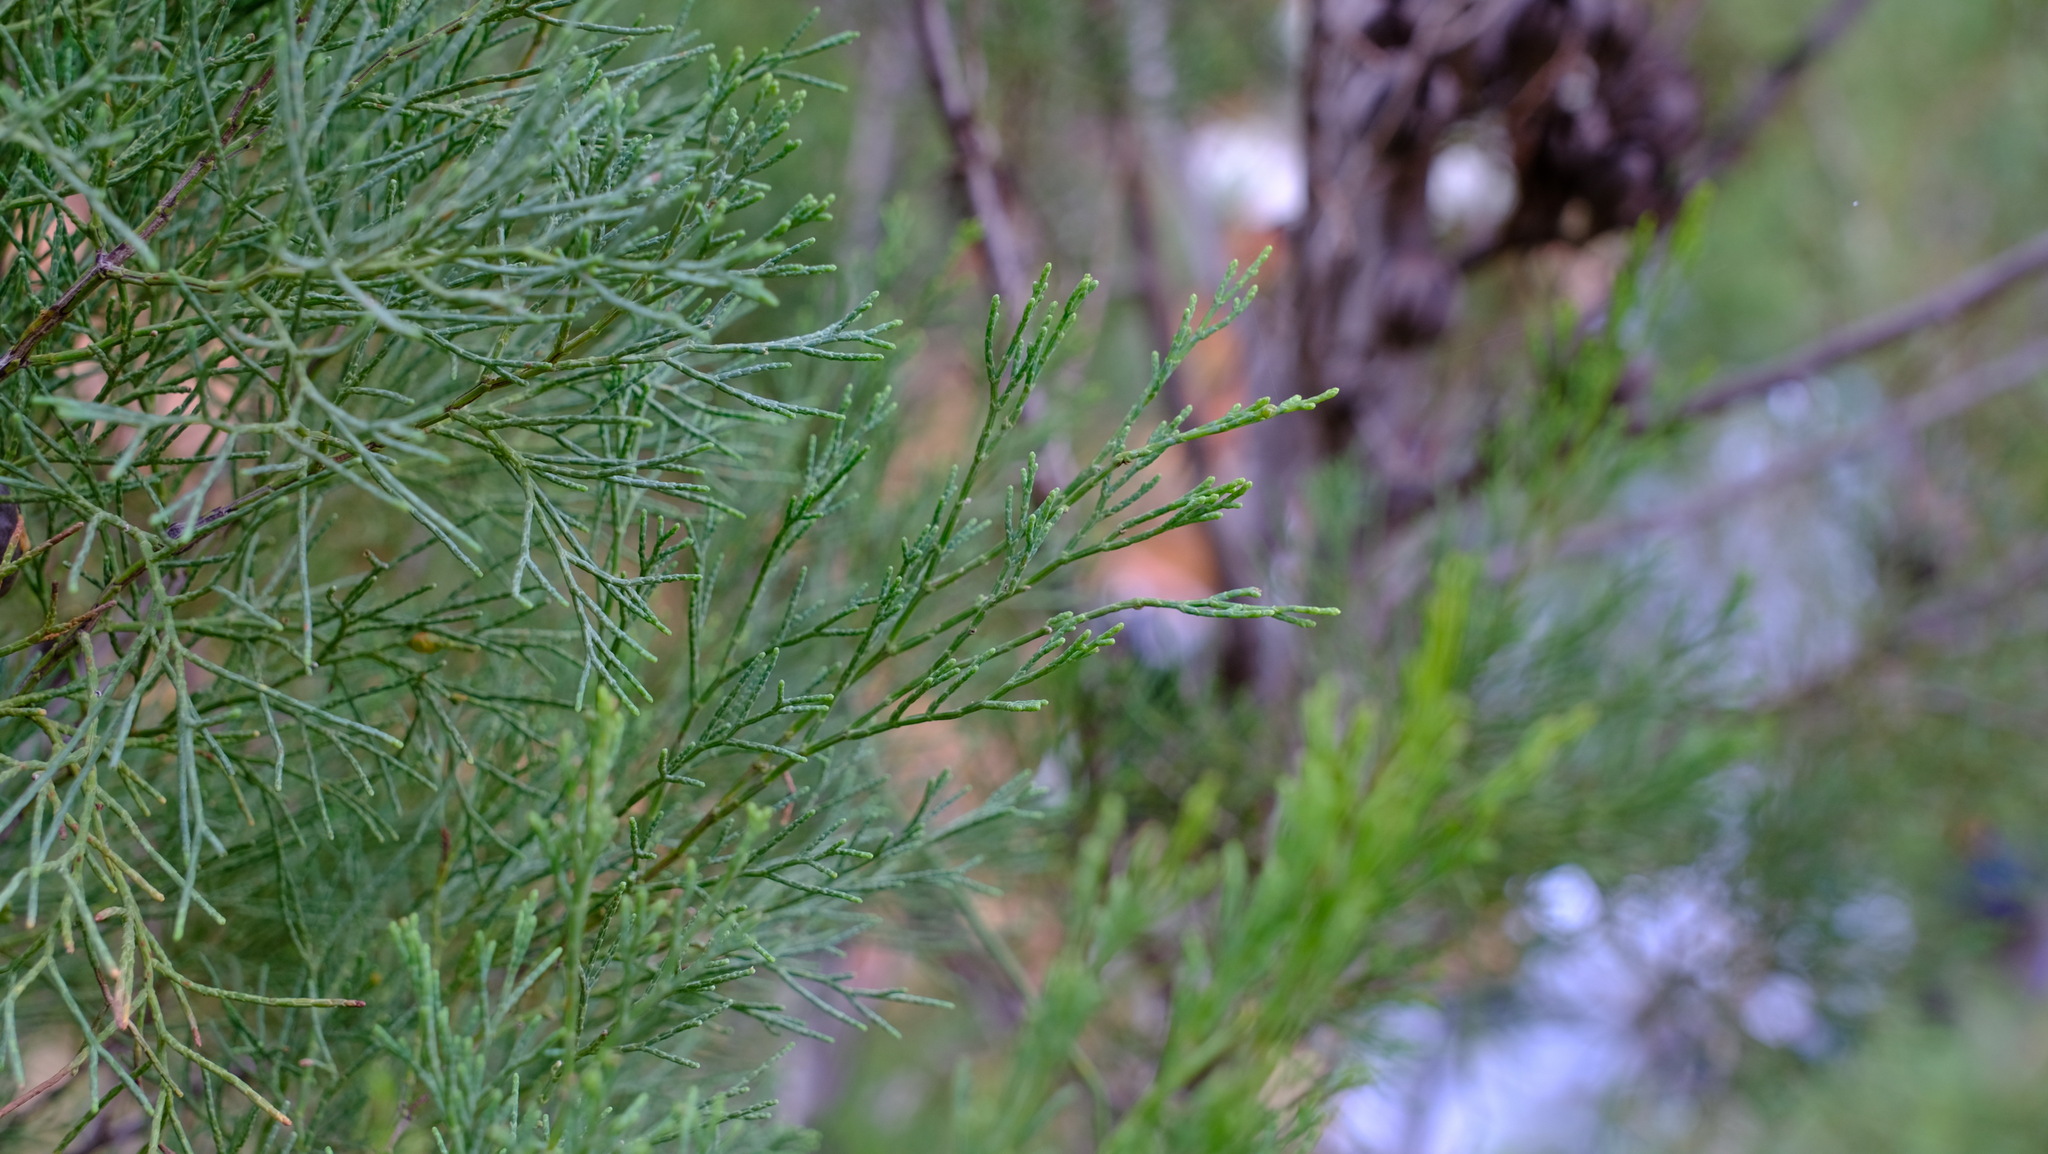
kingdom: Plantae
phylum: Tracheophyta
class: Pinopsida
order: Pinales
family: Cupressaceae
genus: Callitris
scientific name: Callitris canescens
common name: Morrison's cypress-pine
